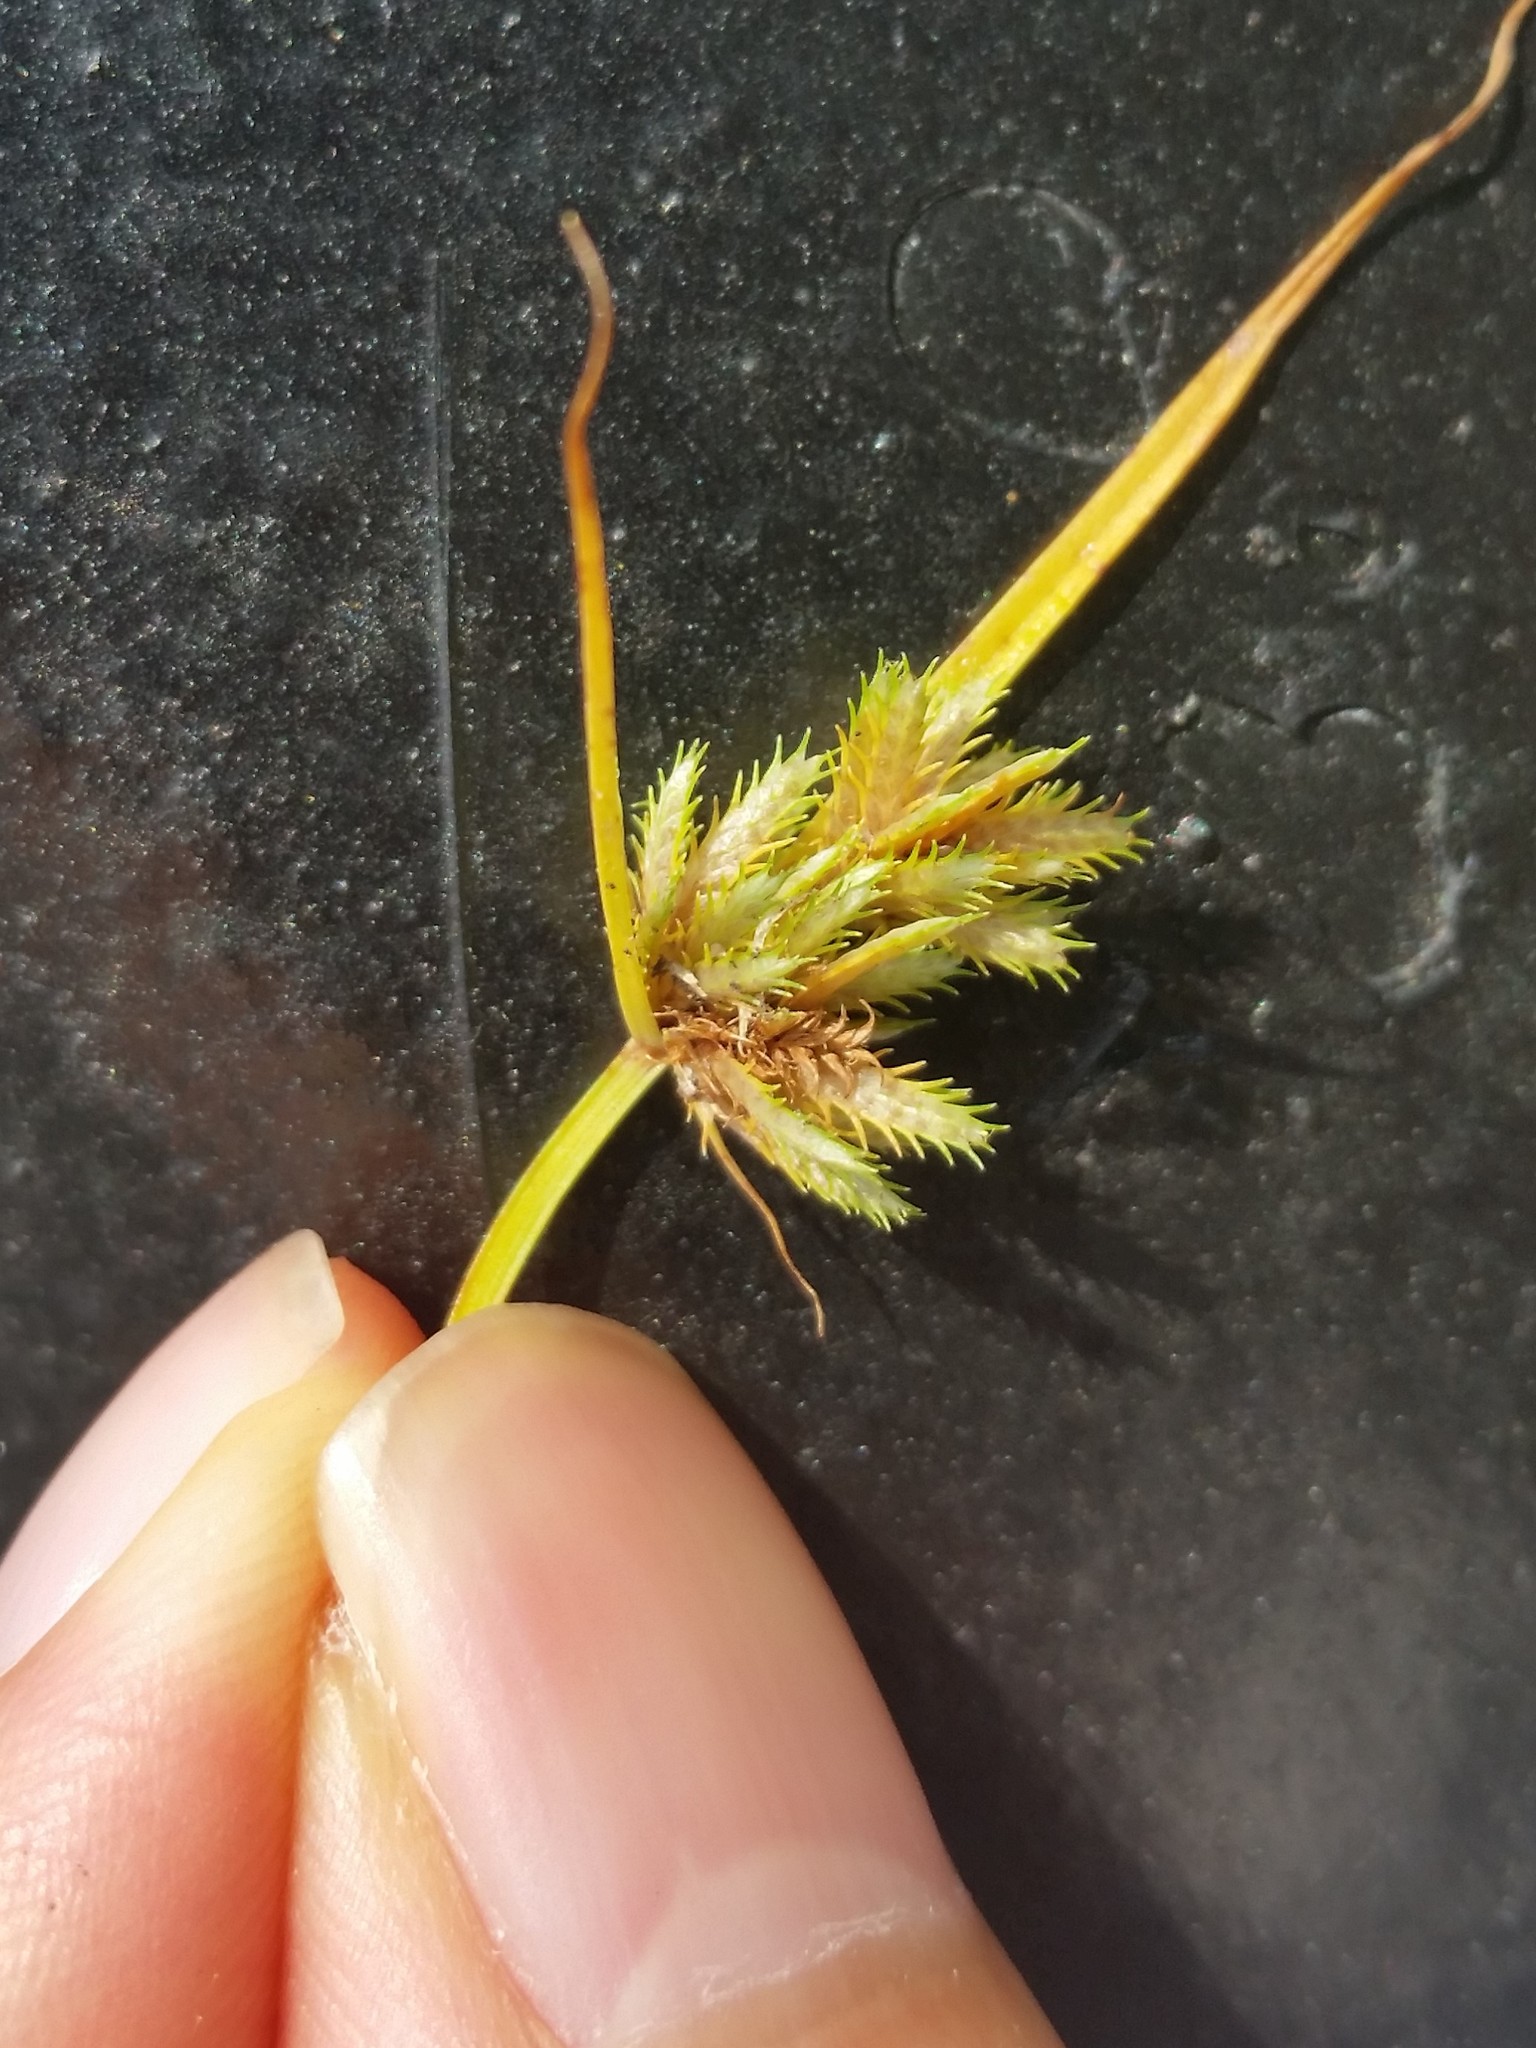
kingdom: Plantae
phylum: Tracheophyta
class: Liliopsida
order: Poales
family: Cyperaceae
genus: Cyperus
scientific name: Cyperus squarrosus
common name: Awned cyperus
